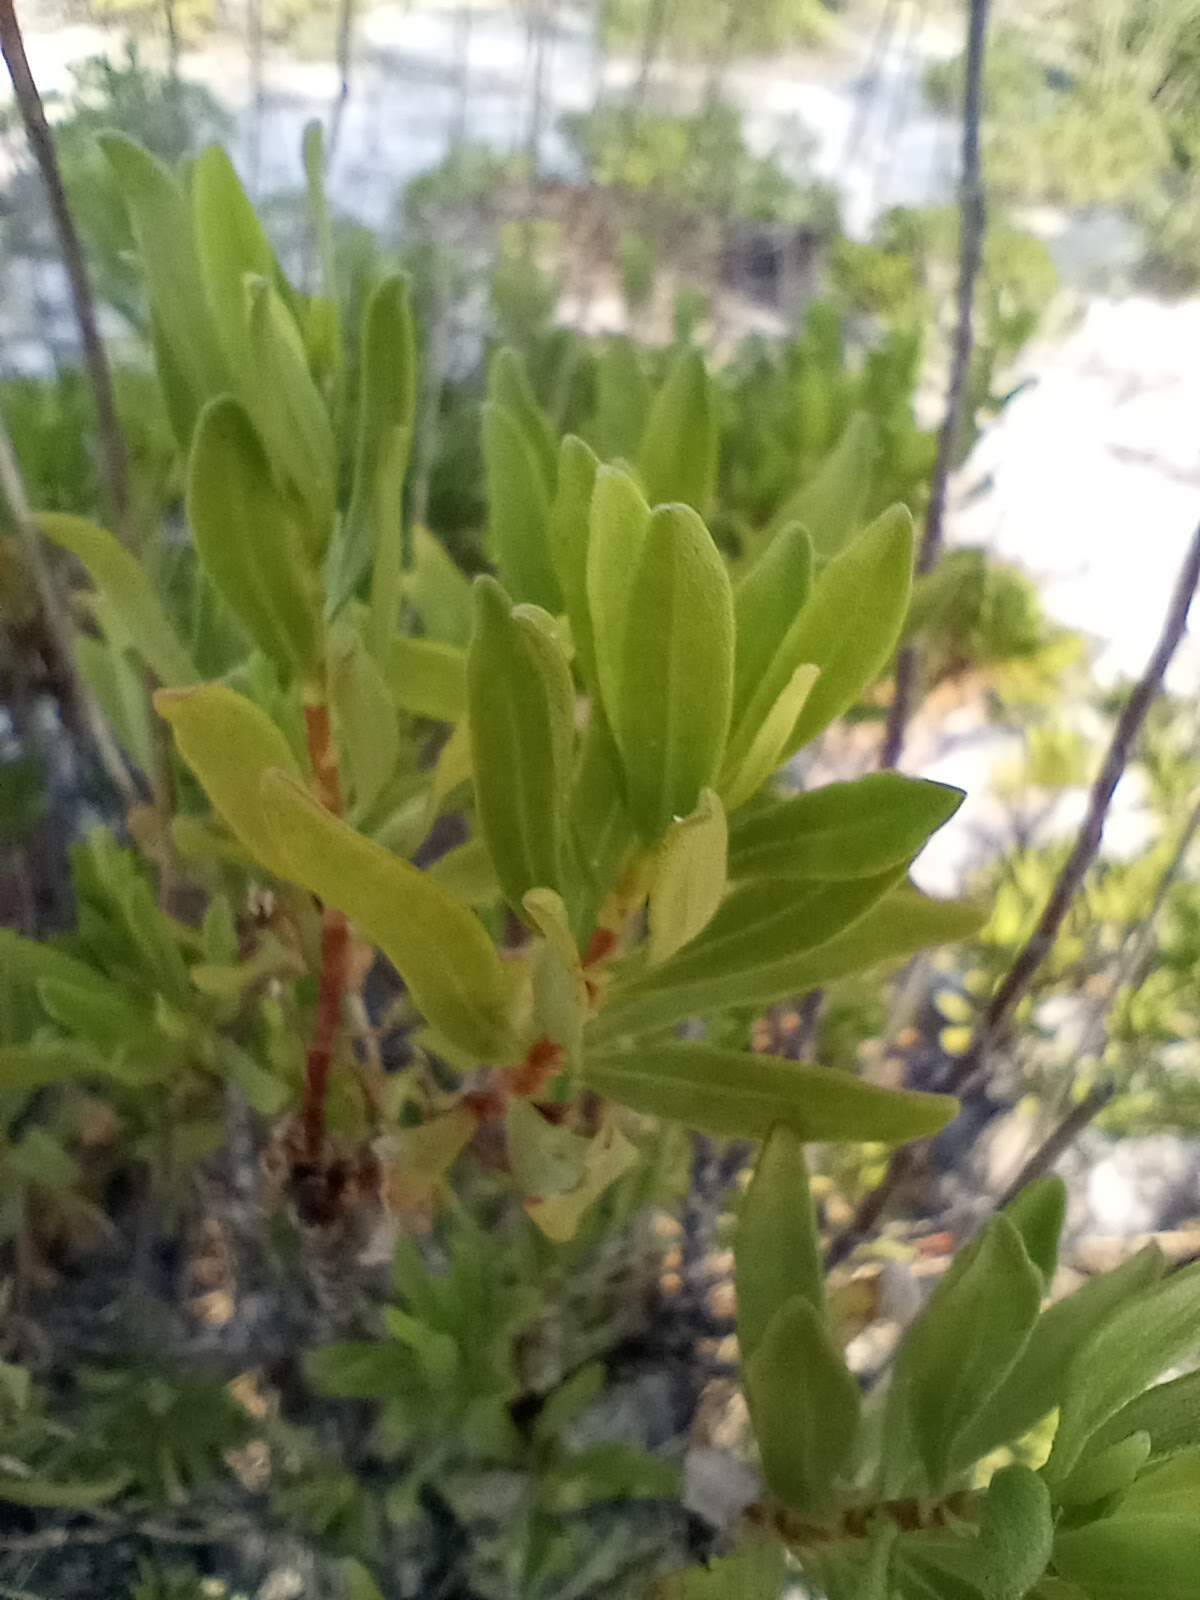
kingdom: Plantae
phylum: Tracheophyta
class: Magnoliopsida
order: Asterales
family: Asteraceae
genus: Chrysoma
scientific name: Chrysoma pauciflosculosa
